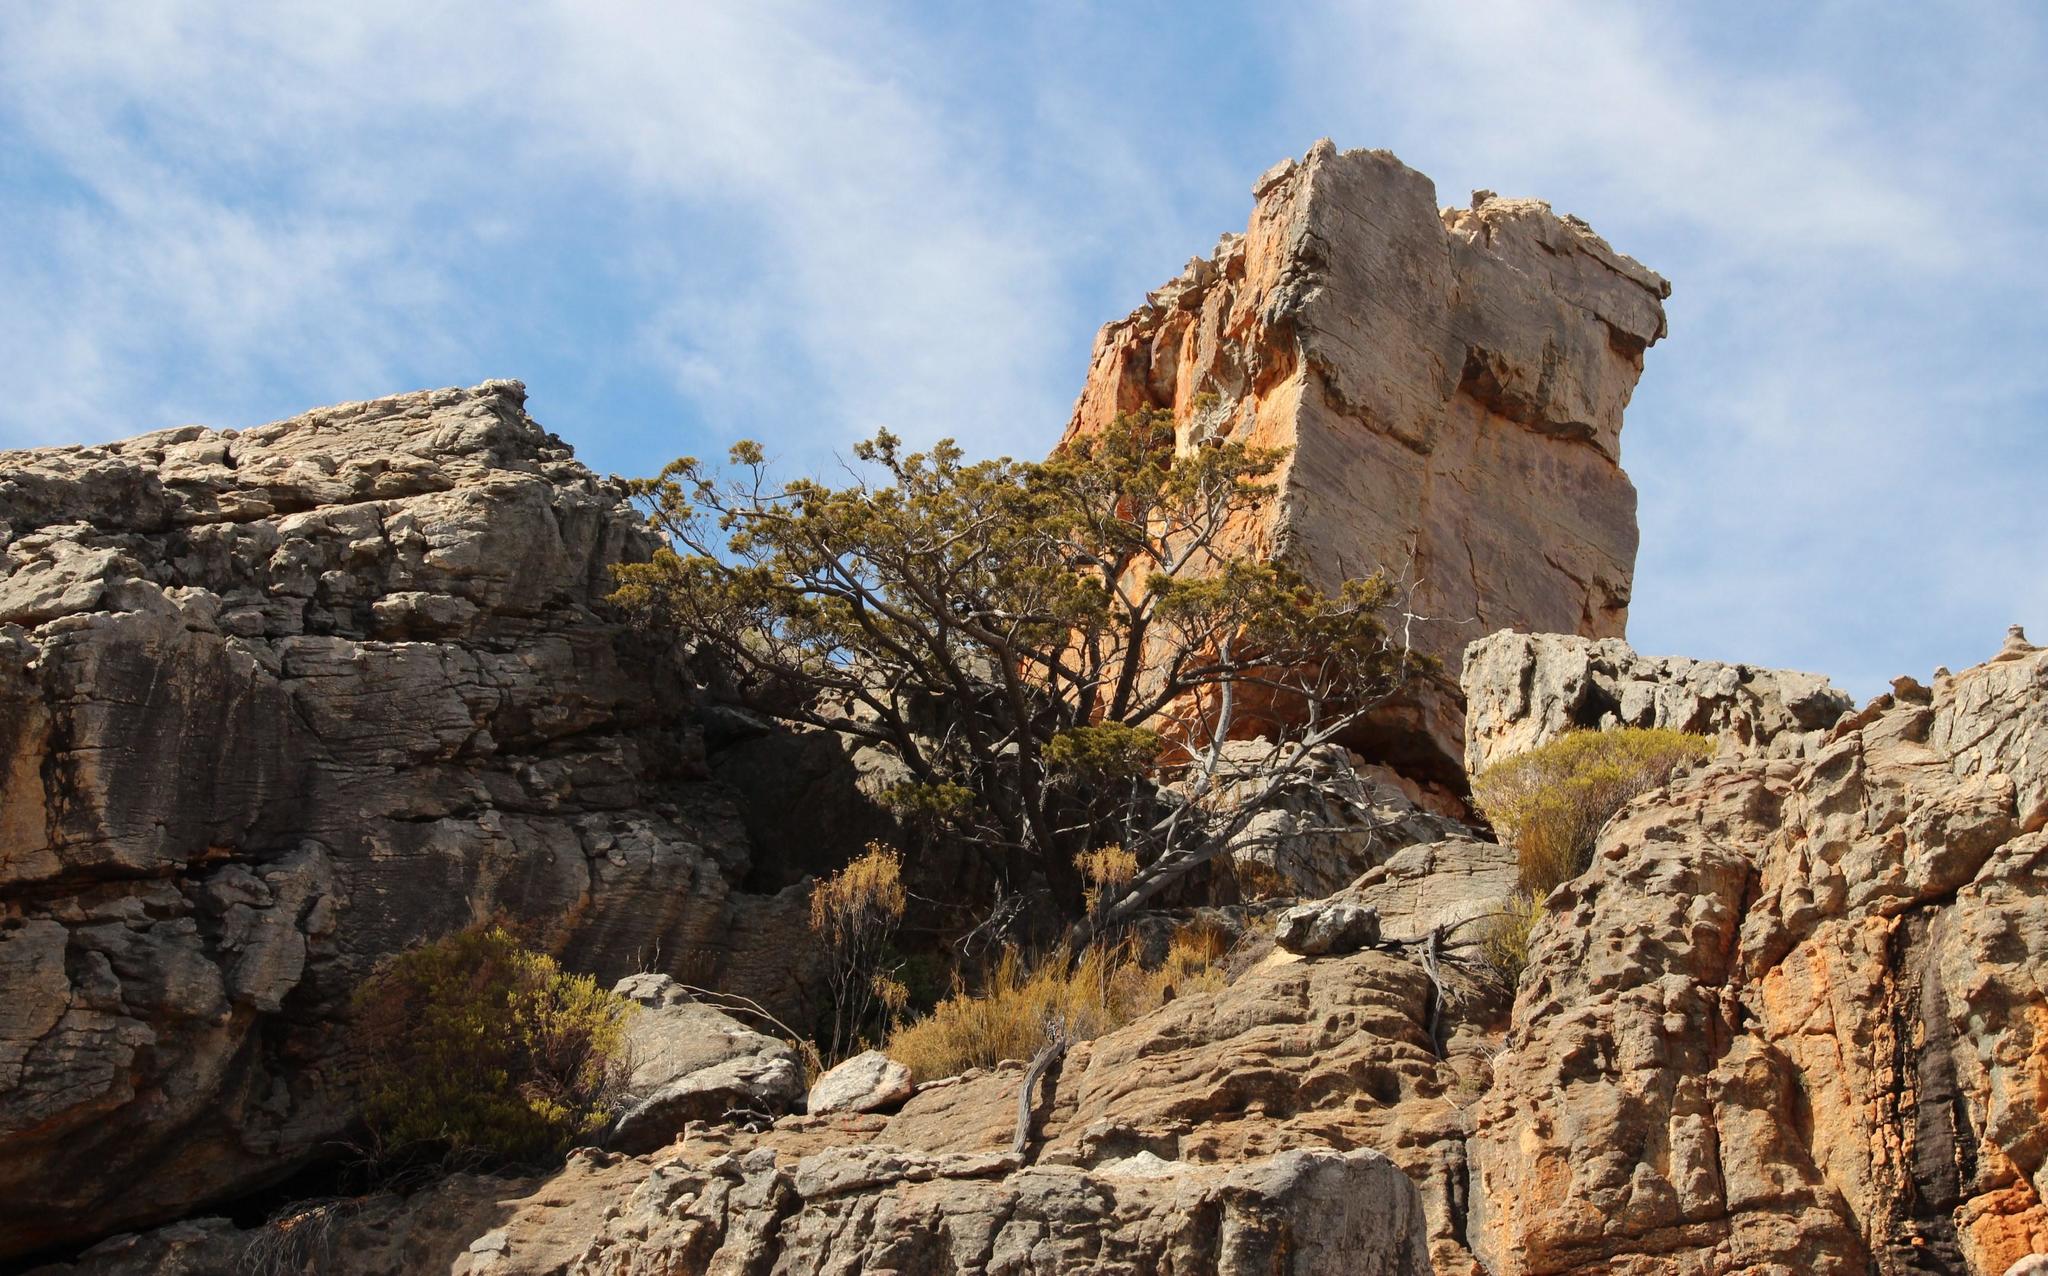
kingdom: Plantae
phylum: Tracheophyta
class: Pinopsida
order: Pinales
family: Cupressaceae
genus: Widdringtonia
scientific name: Widdringtonia nodiflora
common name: Cape cypress
